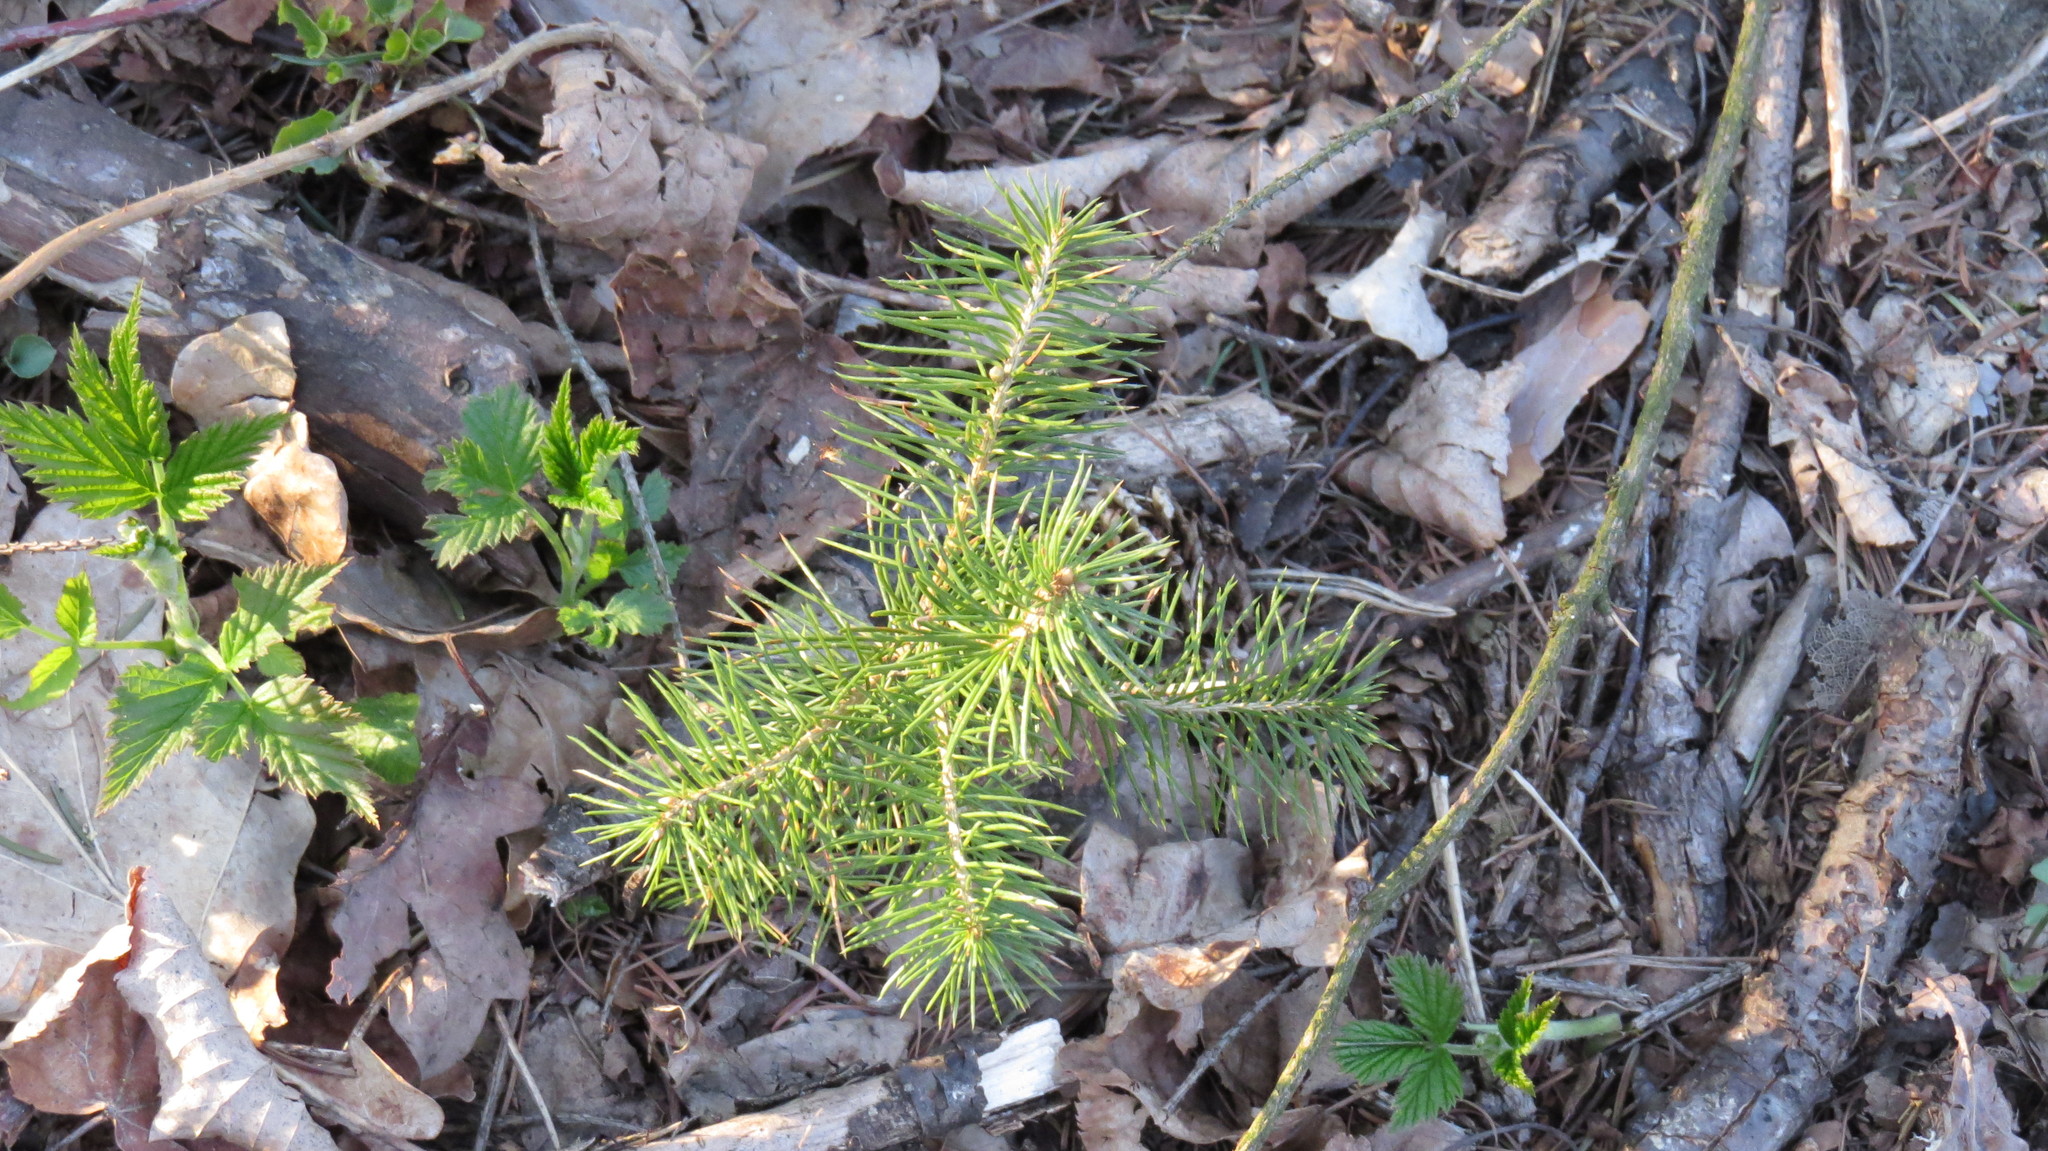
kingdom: Plantae
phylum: Tracheophyta
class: Pinopsida
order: Pinales
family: Pinaceae
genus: Picea
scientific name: Picea abies
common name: Norway spruce
